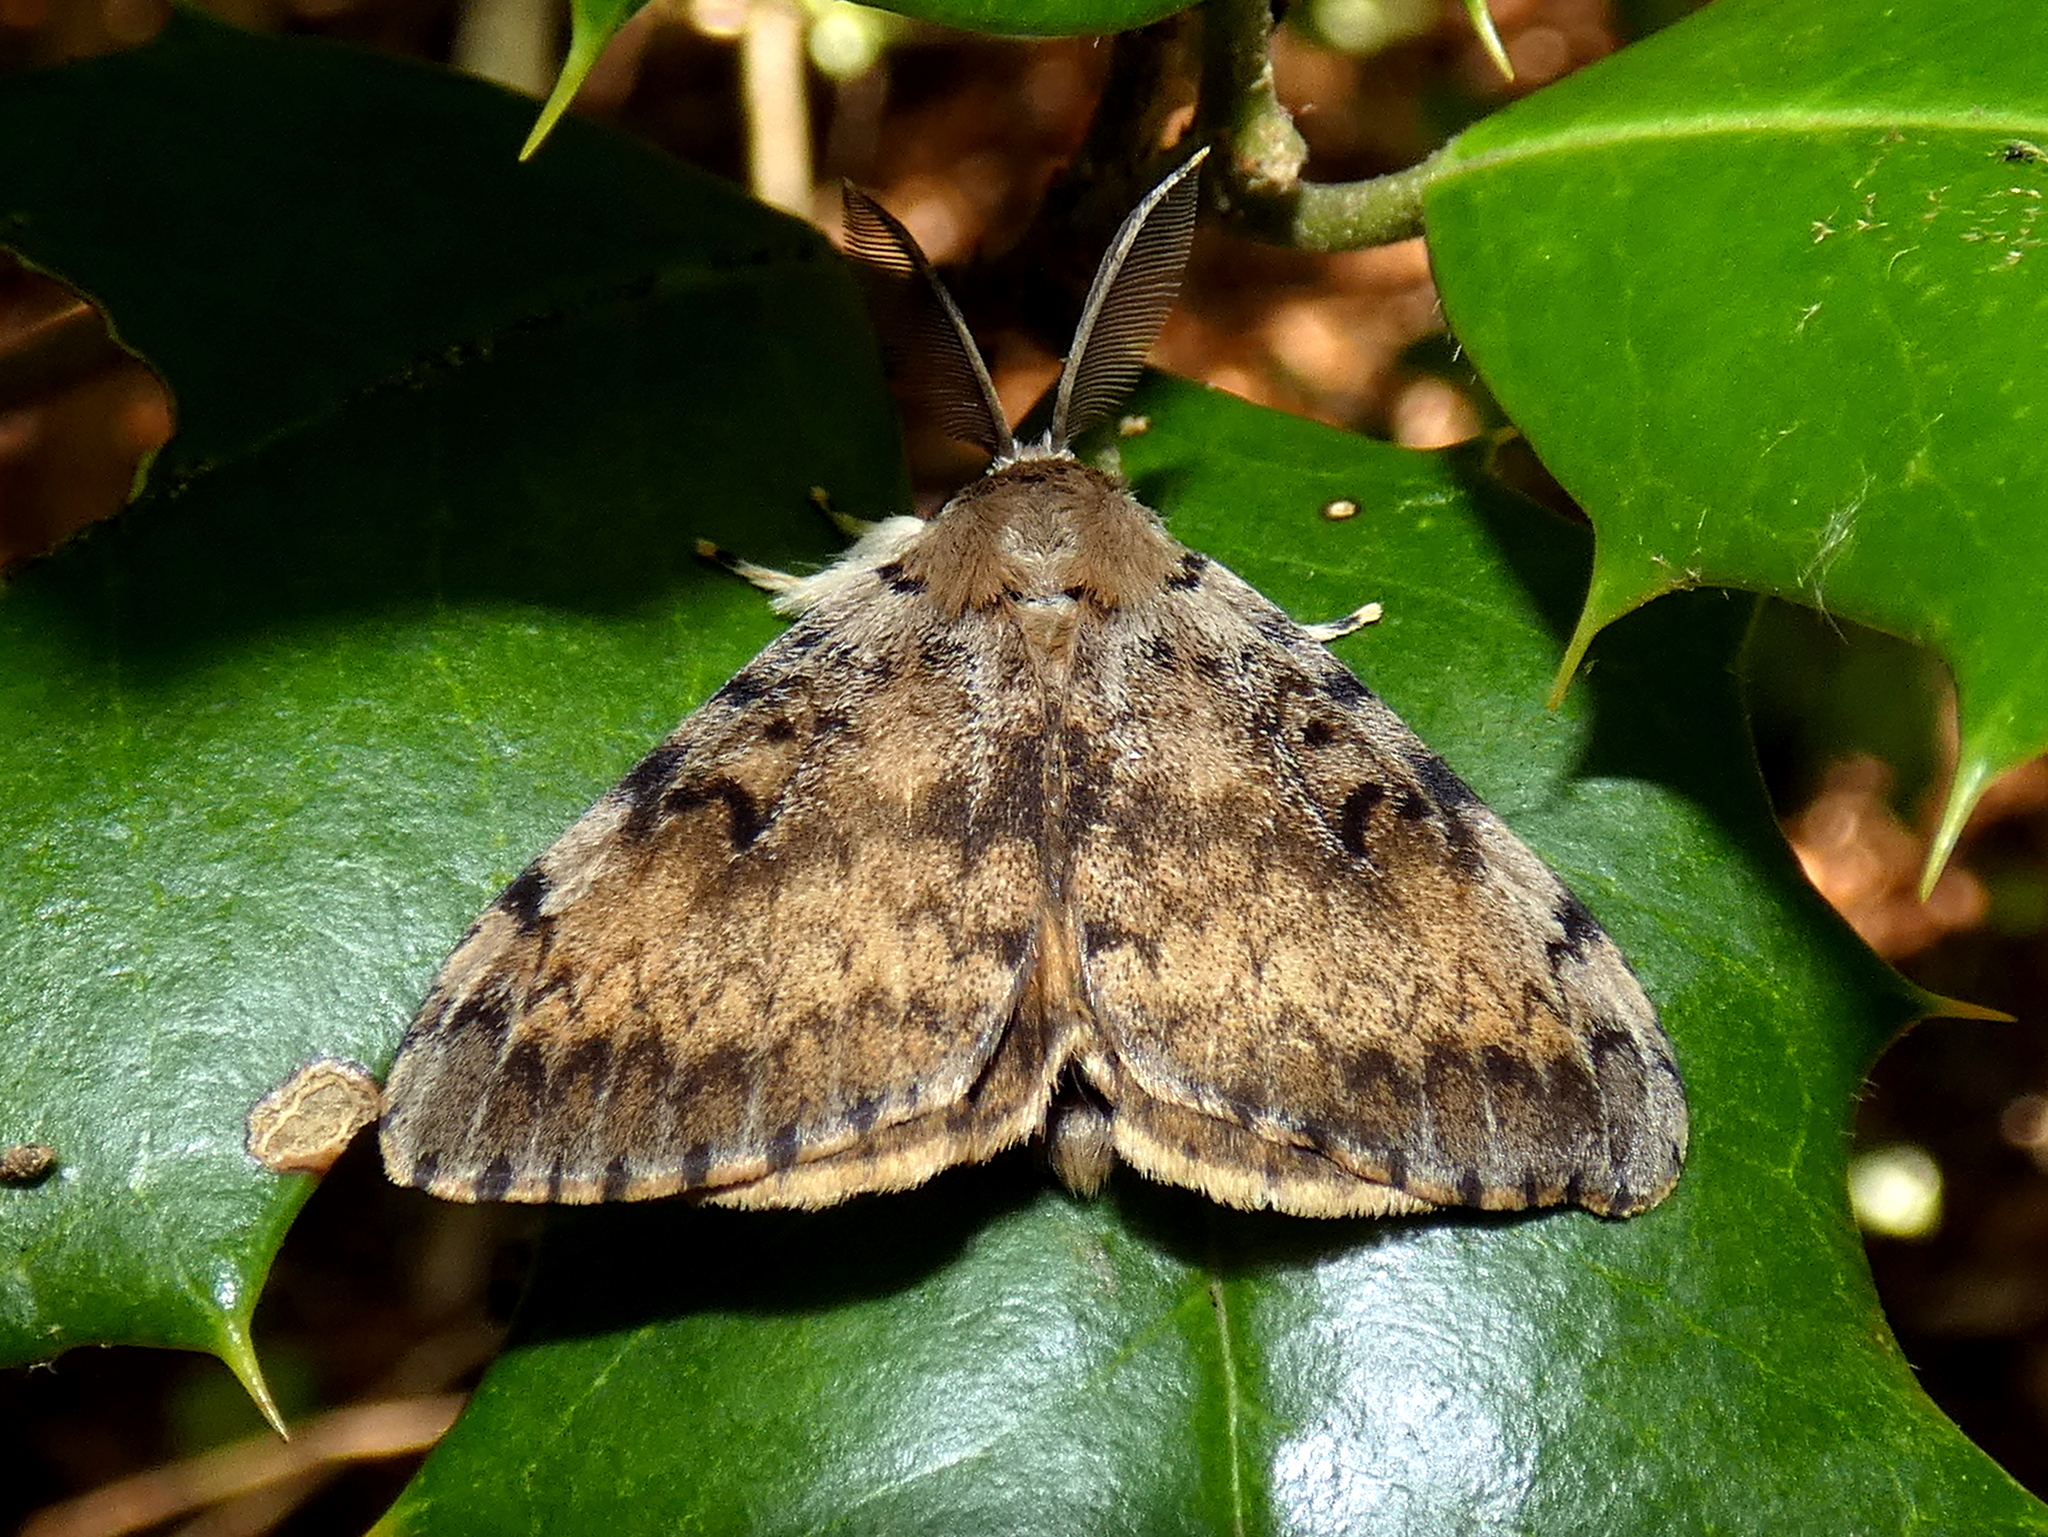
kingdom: Animalia
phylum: Arthropoda
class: Insecta
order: Lepidoptera
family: Erebidae
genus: Lymantria
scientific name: Lymantria dispar
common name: Gypsy moth
